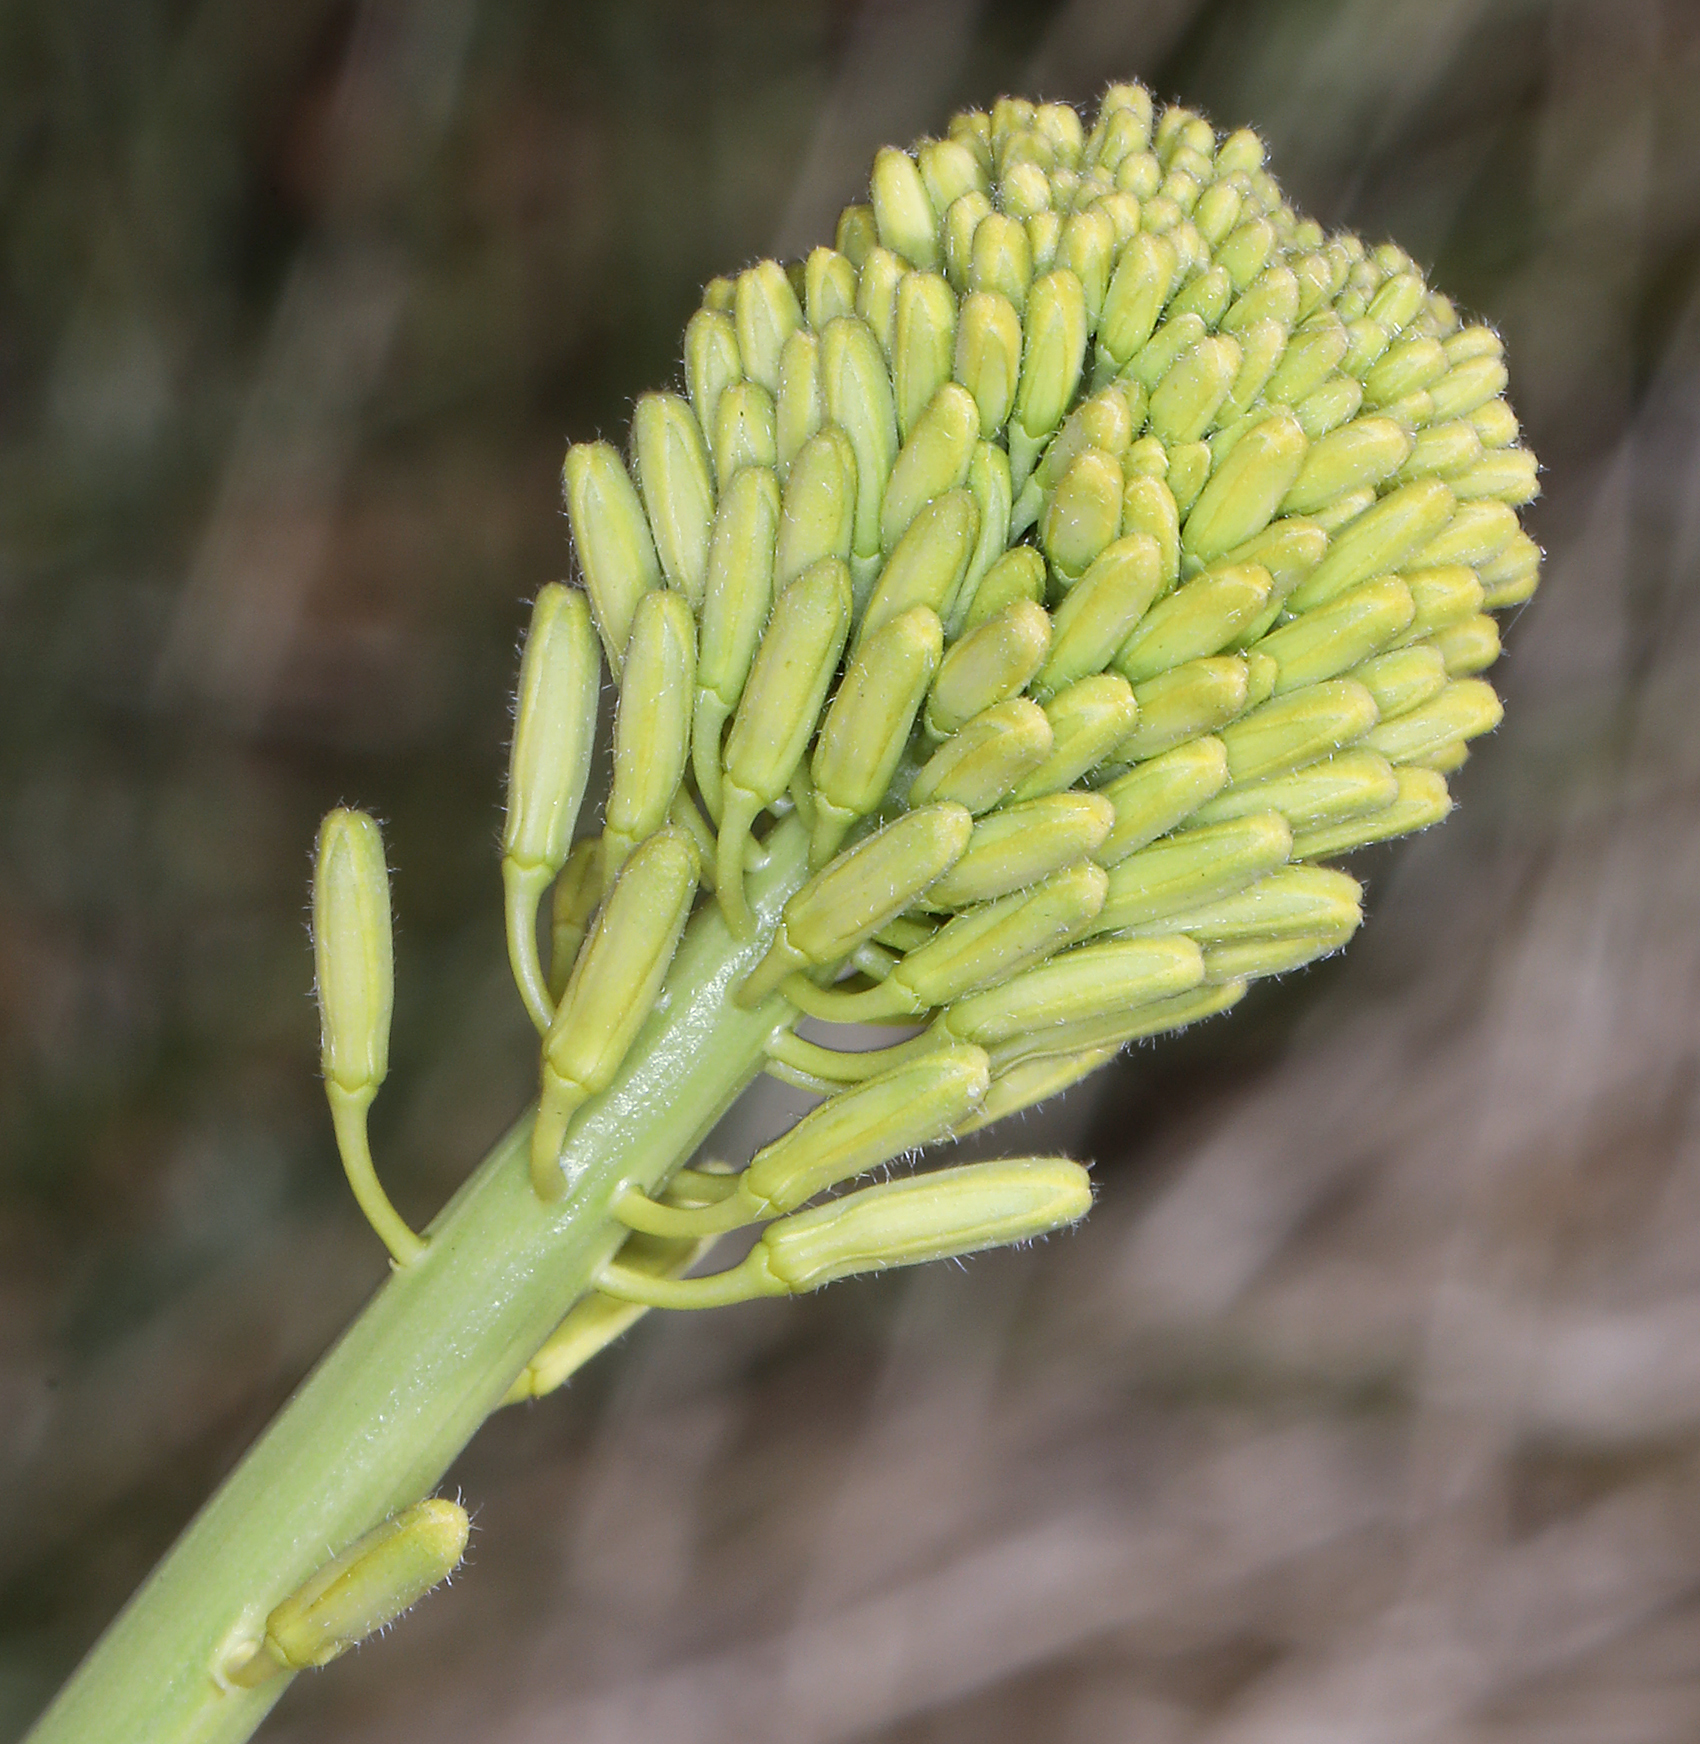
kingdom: Plantae
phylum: Tracheophyta
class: Magnoliopsida
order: Brassicales
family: Brassicaceae
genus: Stanleya
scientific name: Stanleya elata
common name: Panamint prince's plume
